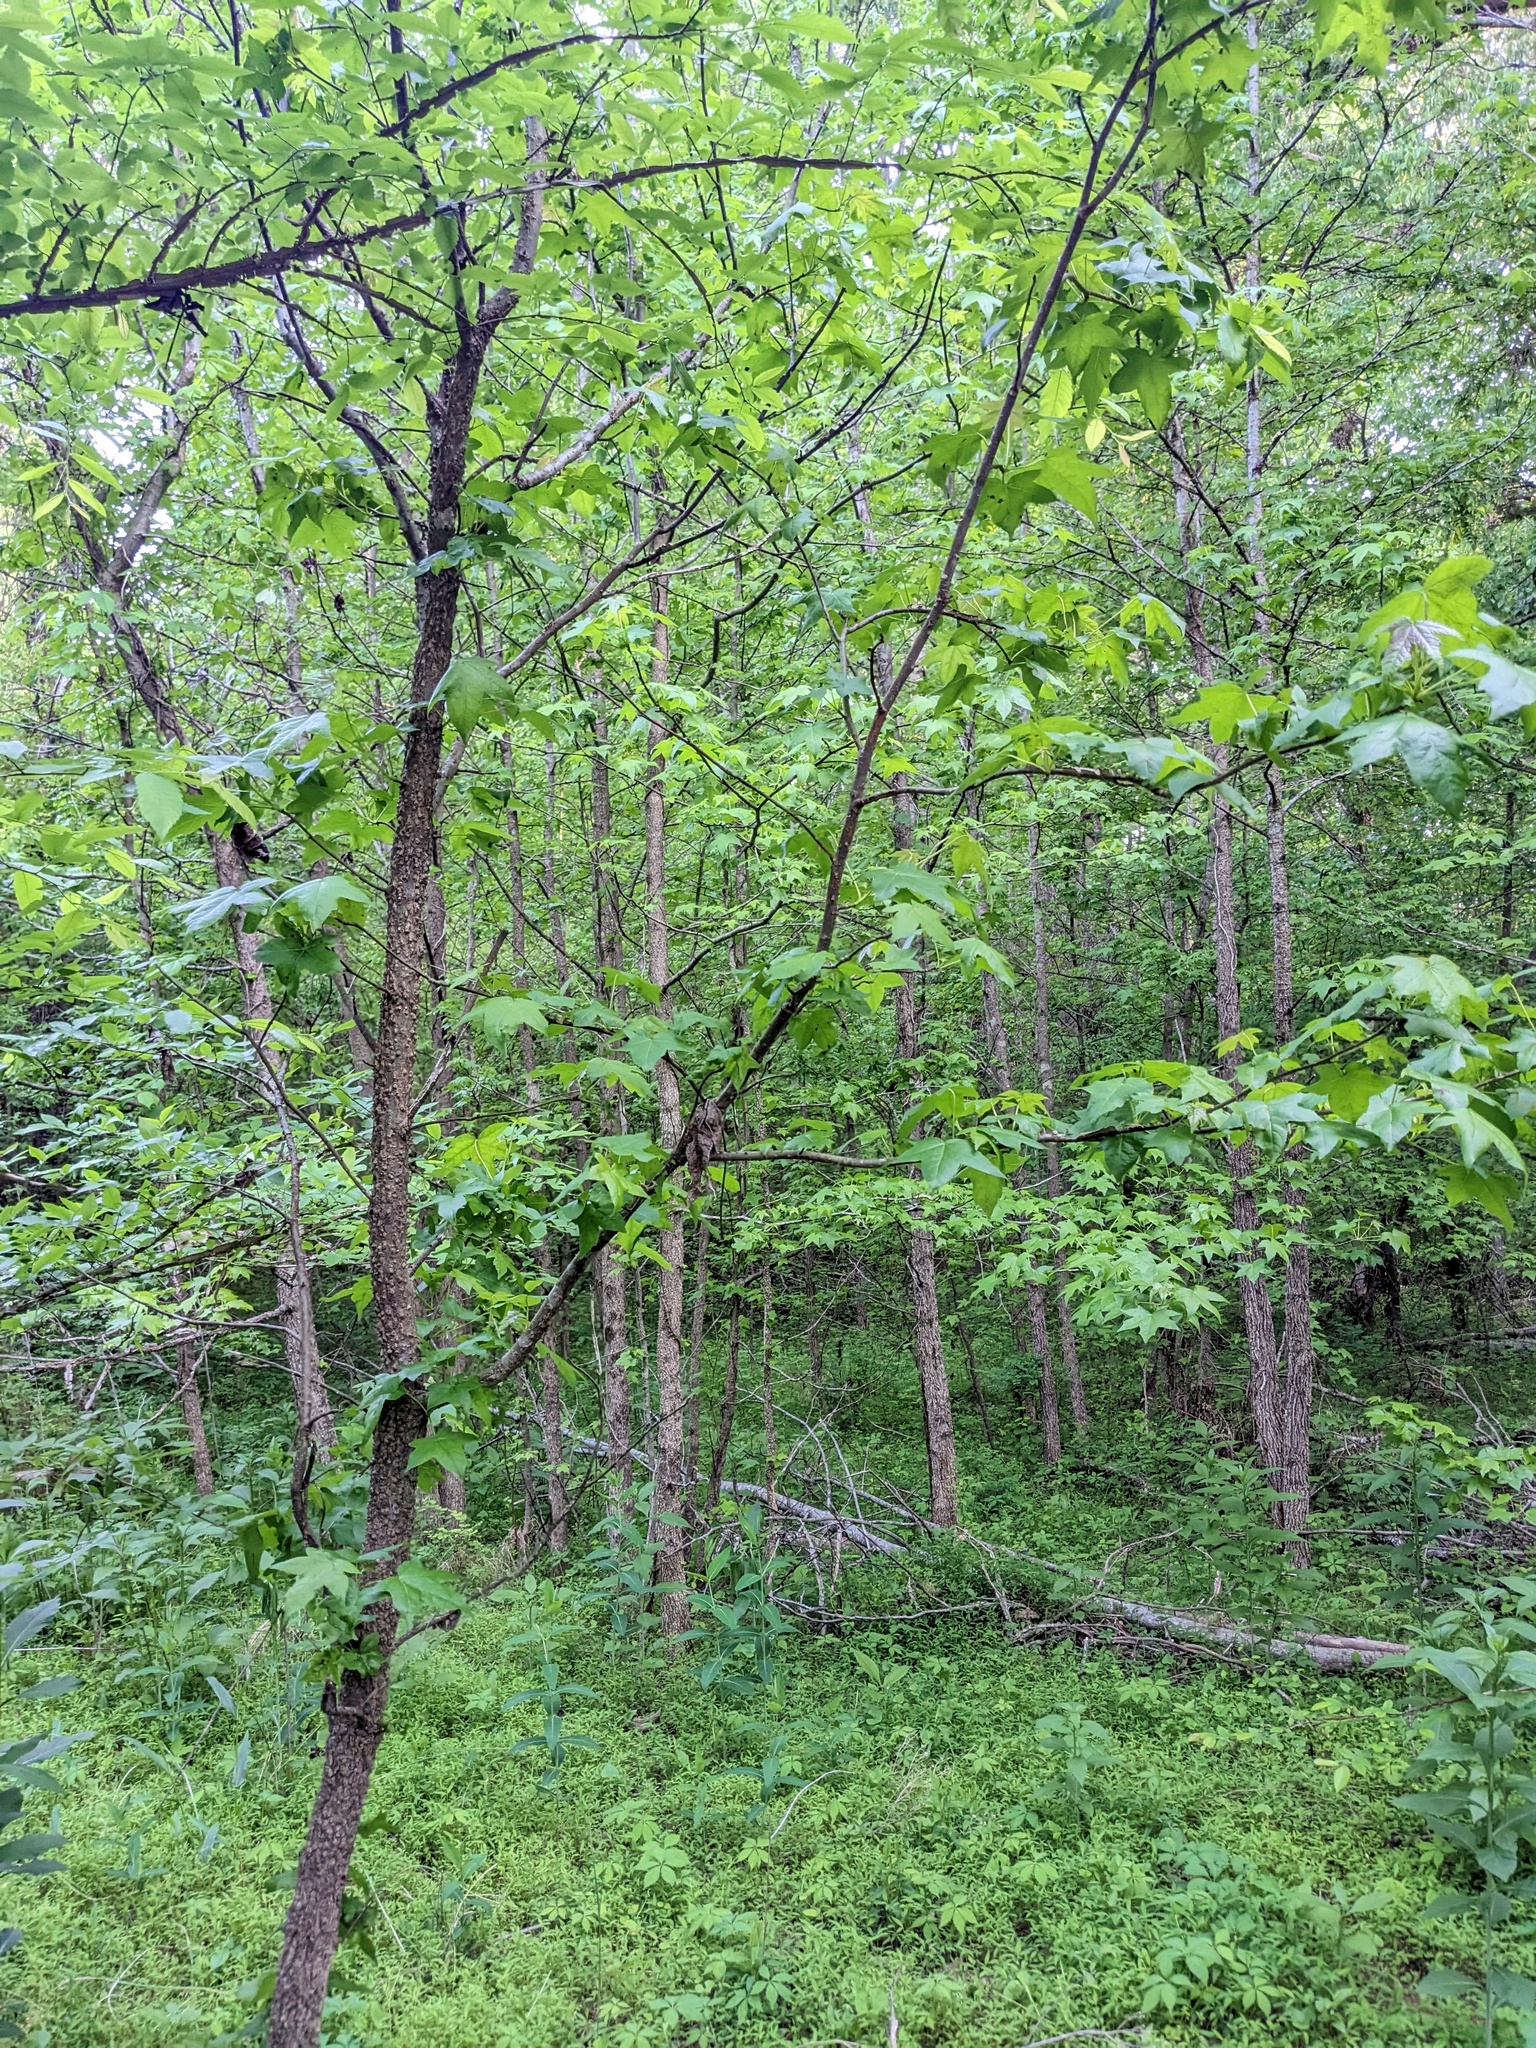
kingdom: Plantae
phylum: Tracheophyta
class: Magnoliopsida
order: Saxifragales
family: Altingiaceae
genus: Liquidambar
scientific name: Liquidambar styraciflua
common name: Sweet gum
